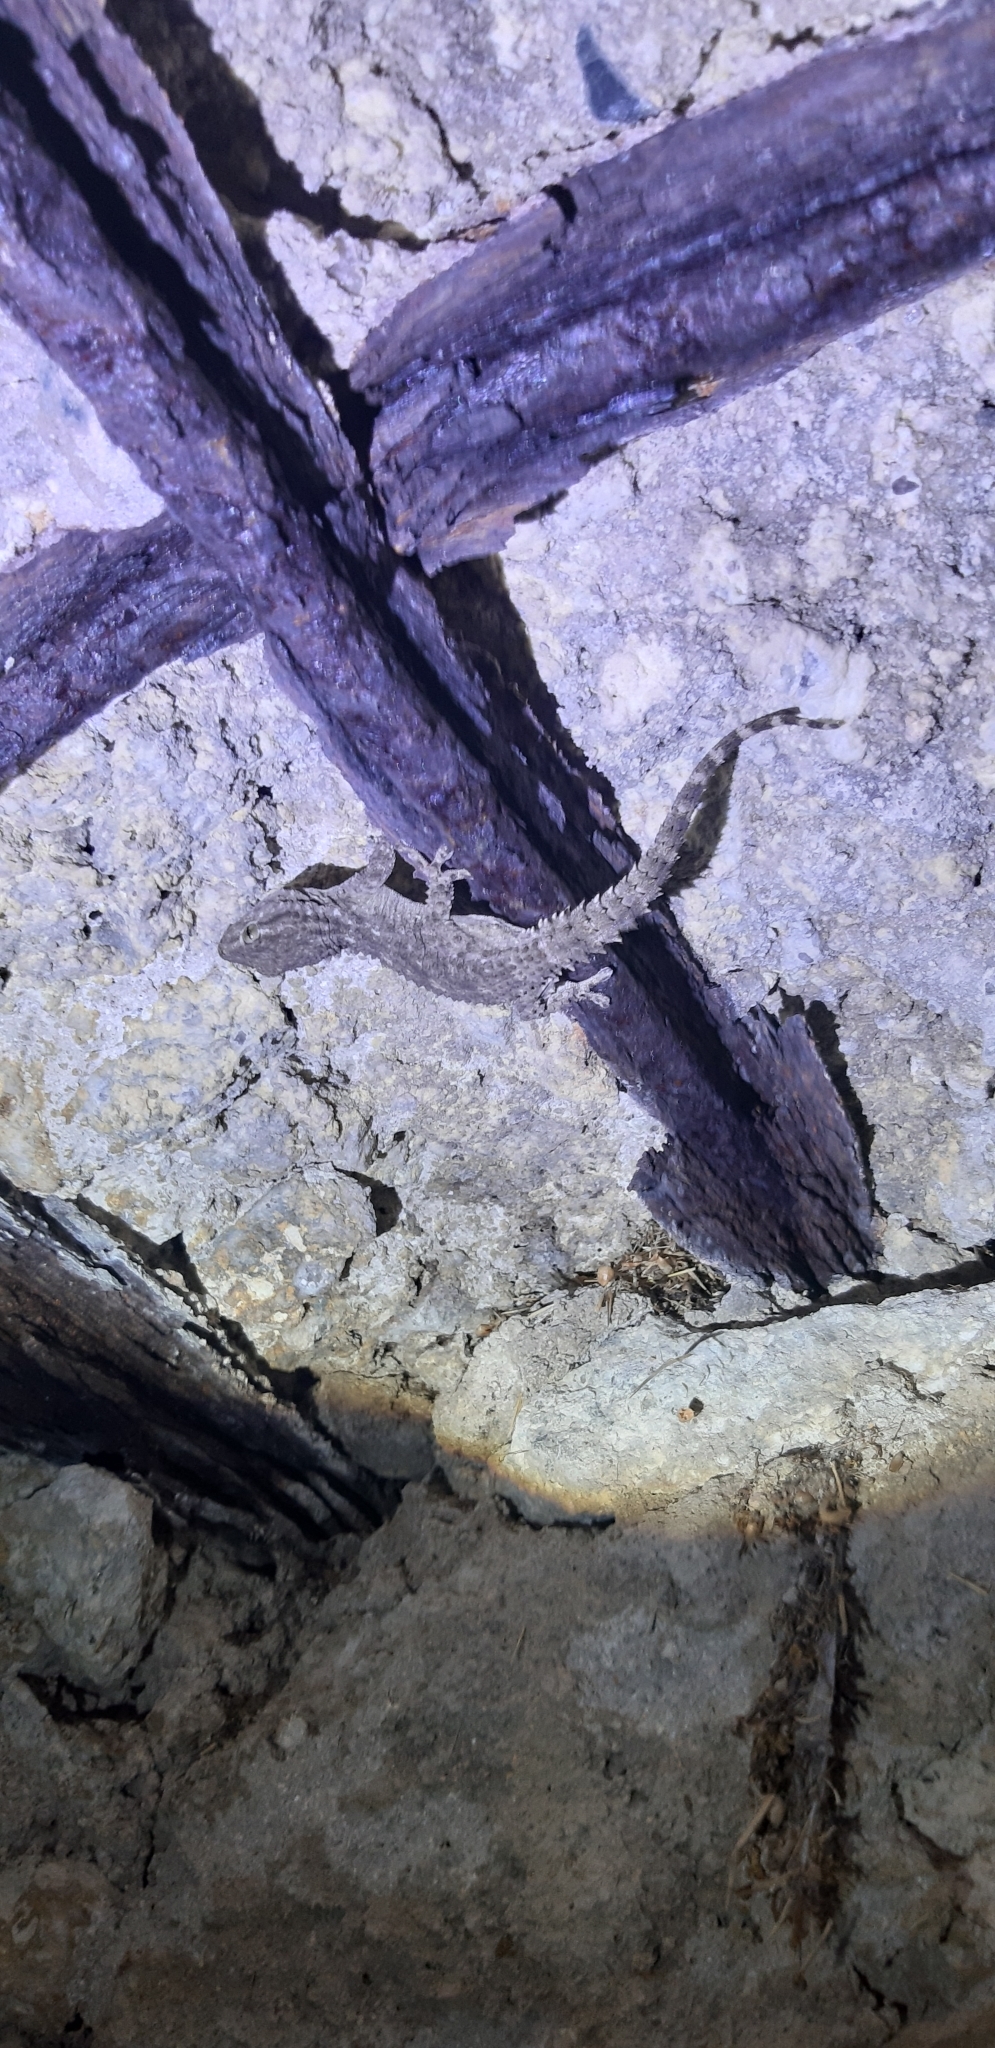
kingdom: Animalia
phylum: Chordata
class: Squamata
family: Phyllodactylidae
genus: Tarentola
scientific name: Tarentola mauritanica
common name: Moorish gecko
